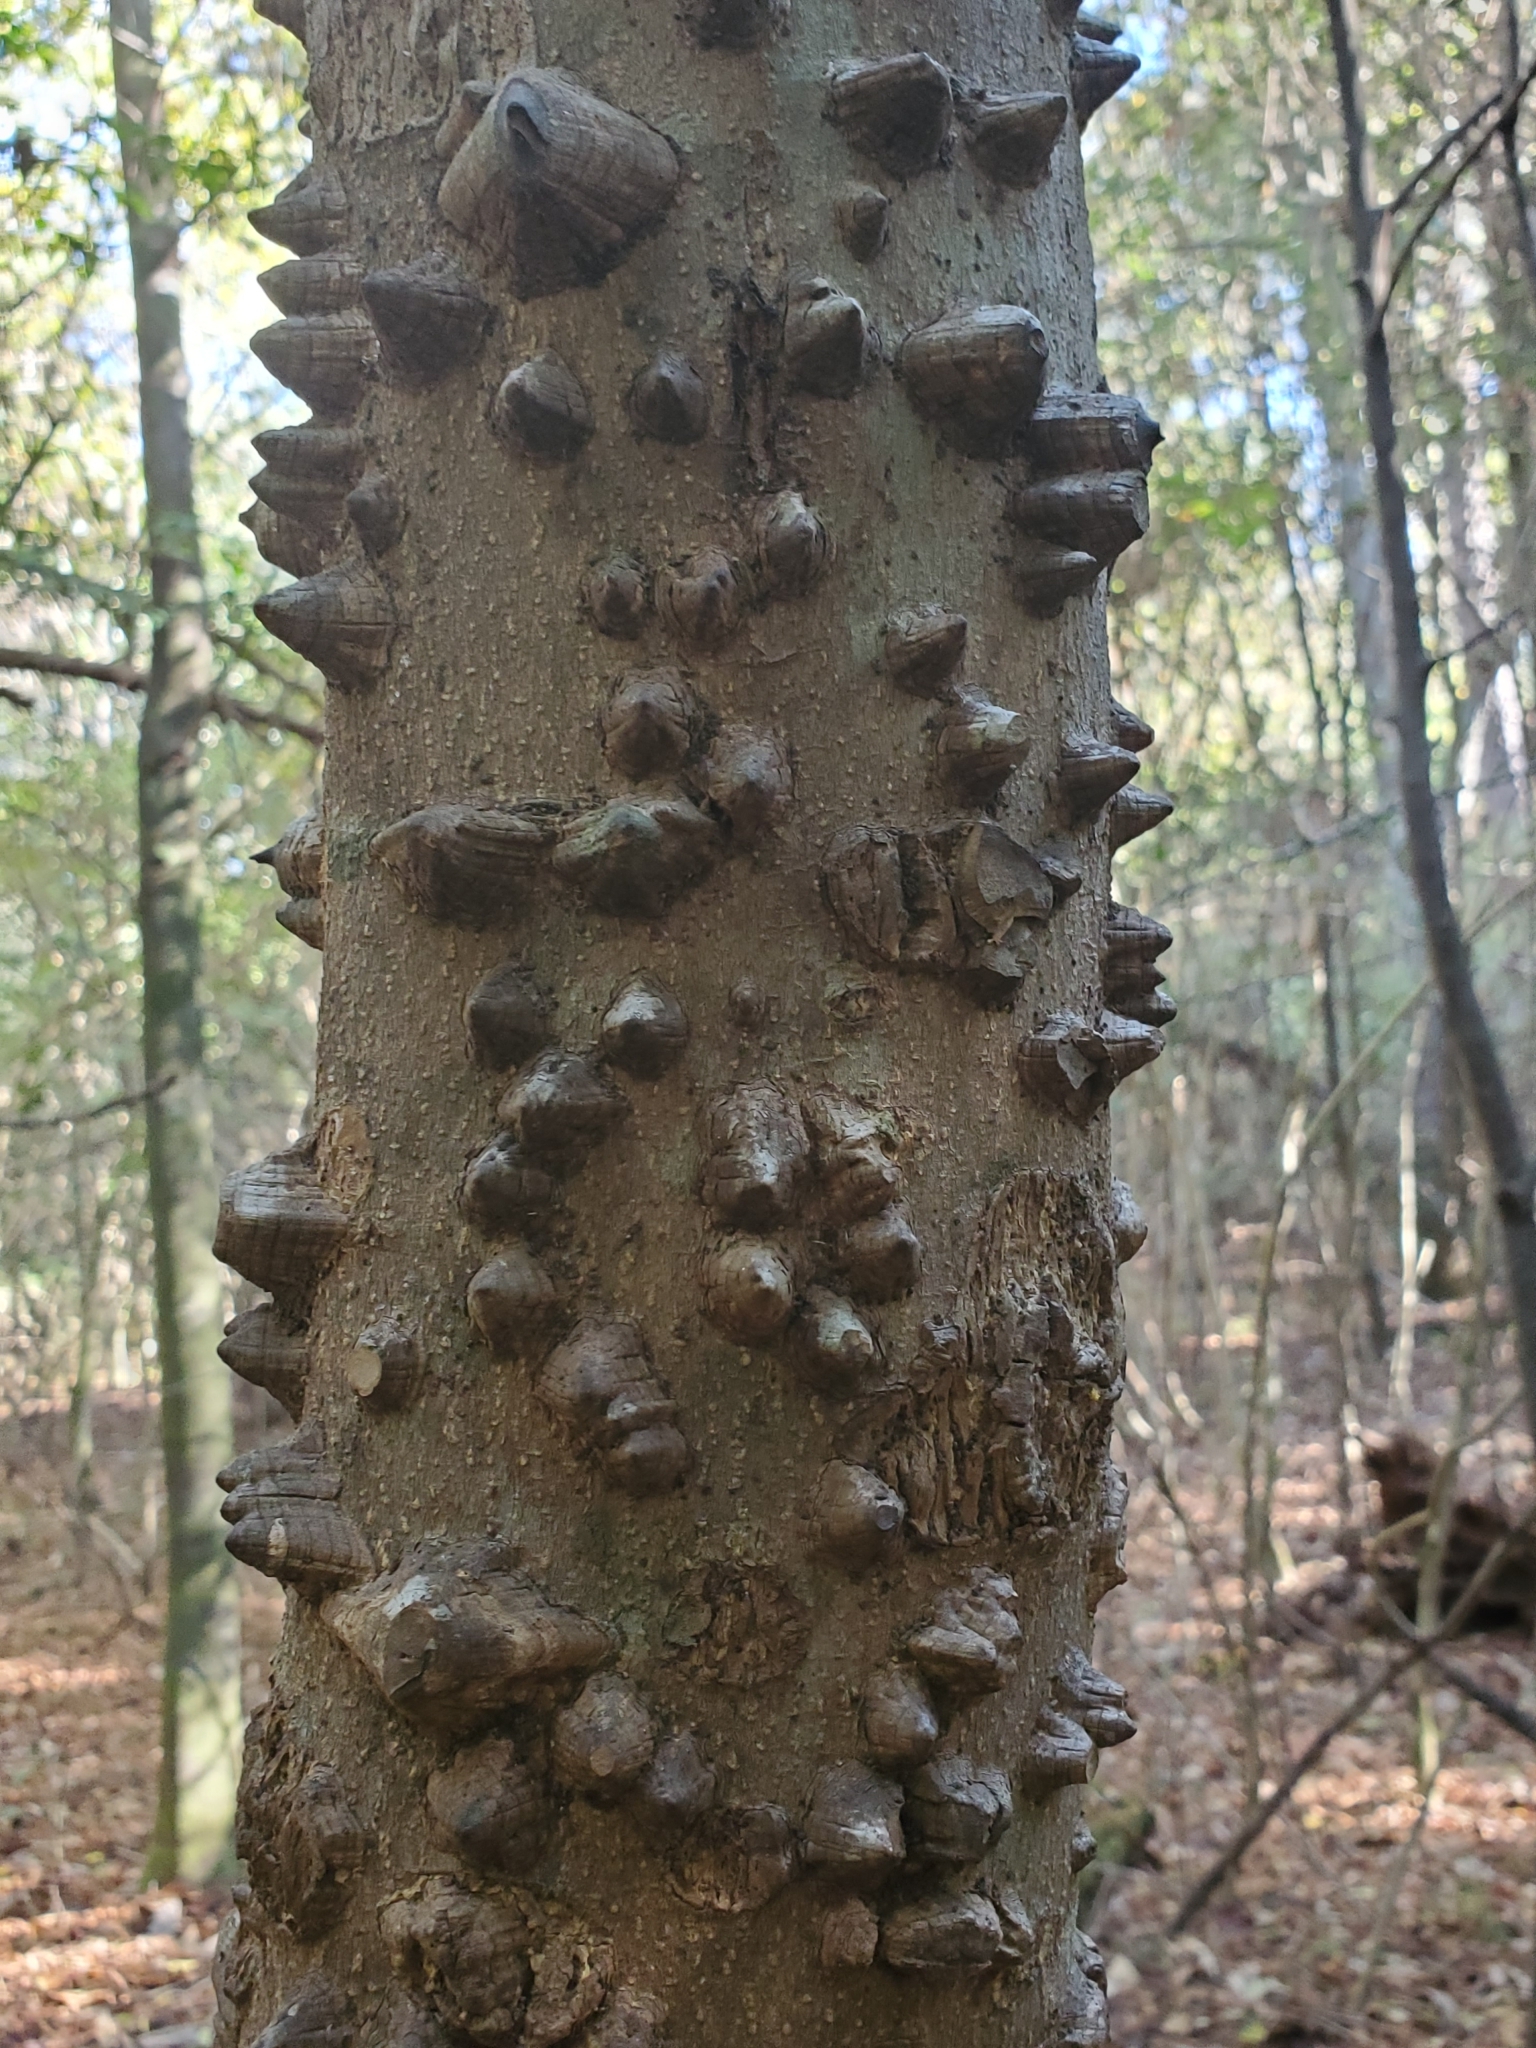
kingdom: Plantae
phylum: Tracheophyta
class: Magnoliopsida
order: Sapindales
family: Rutaceae
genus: Zanthoxylum
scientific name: Zanthoxylum clava-herculis
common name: Hercules'-club
